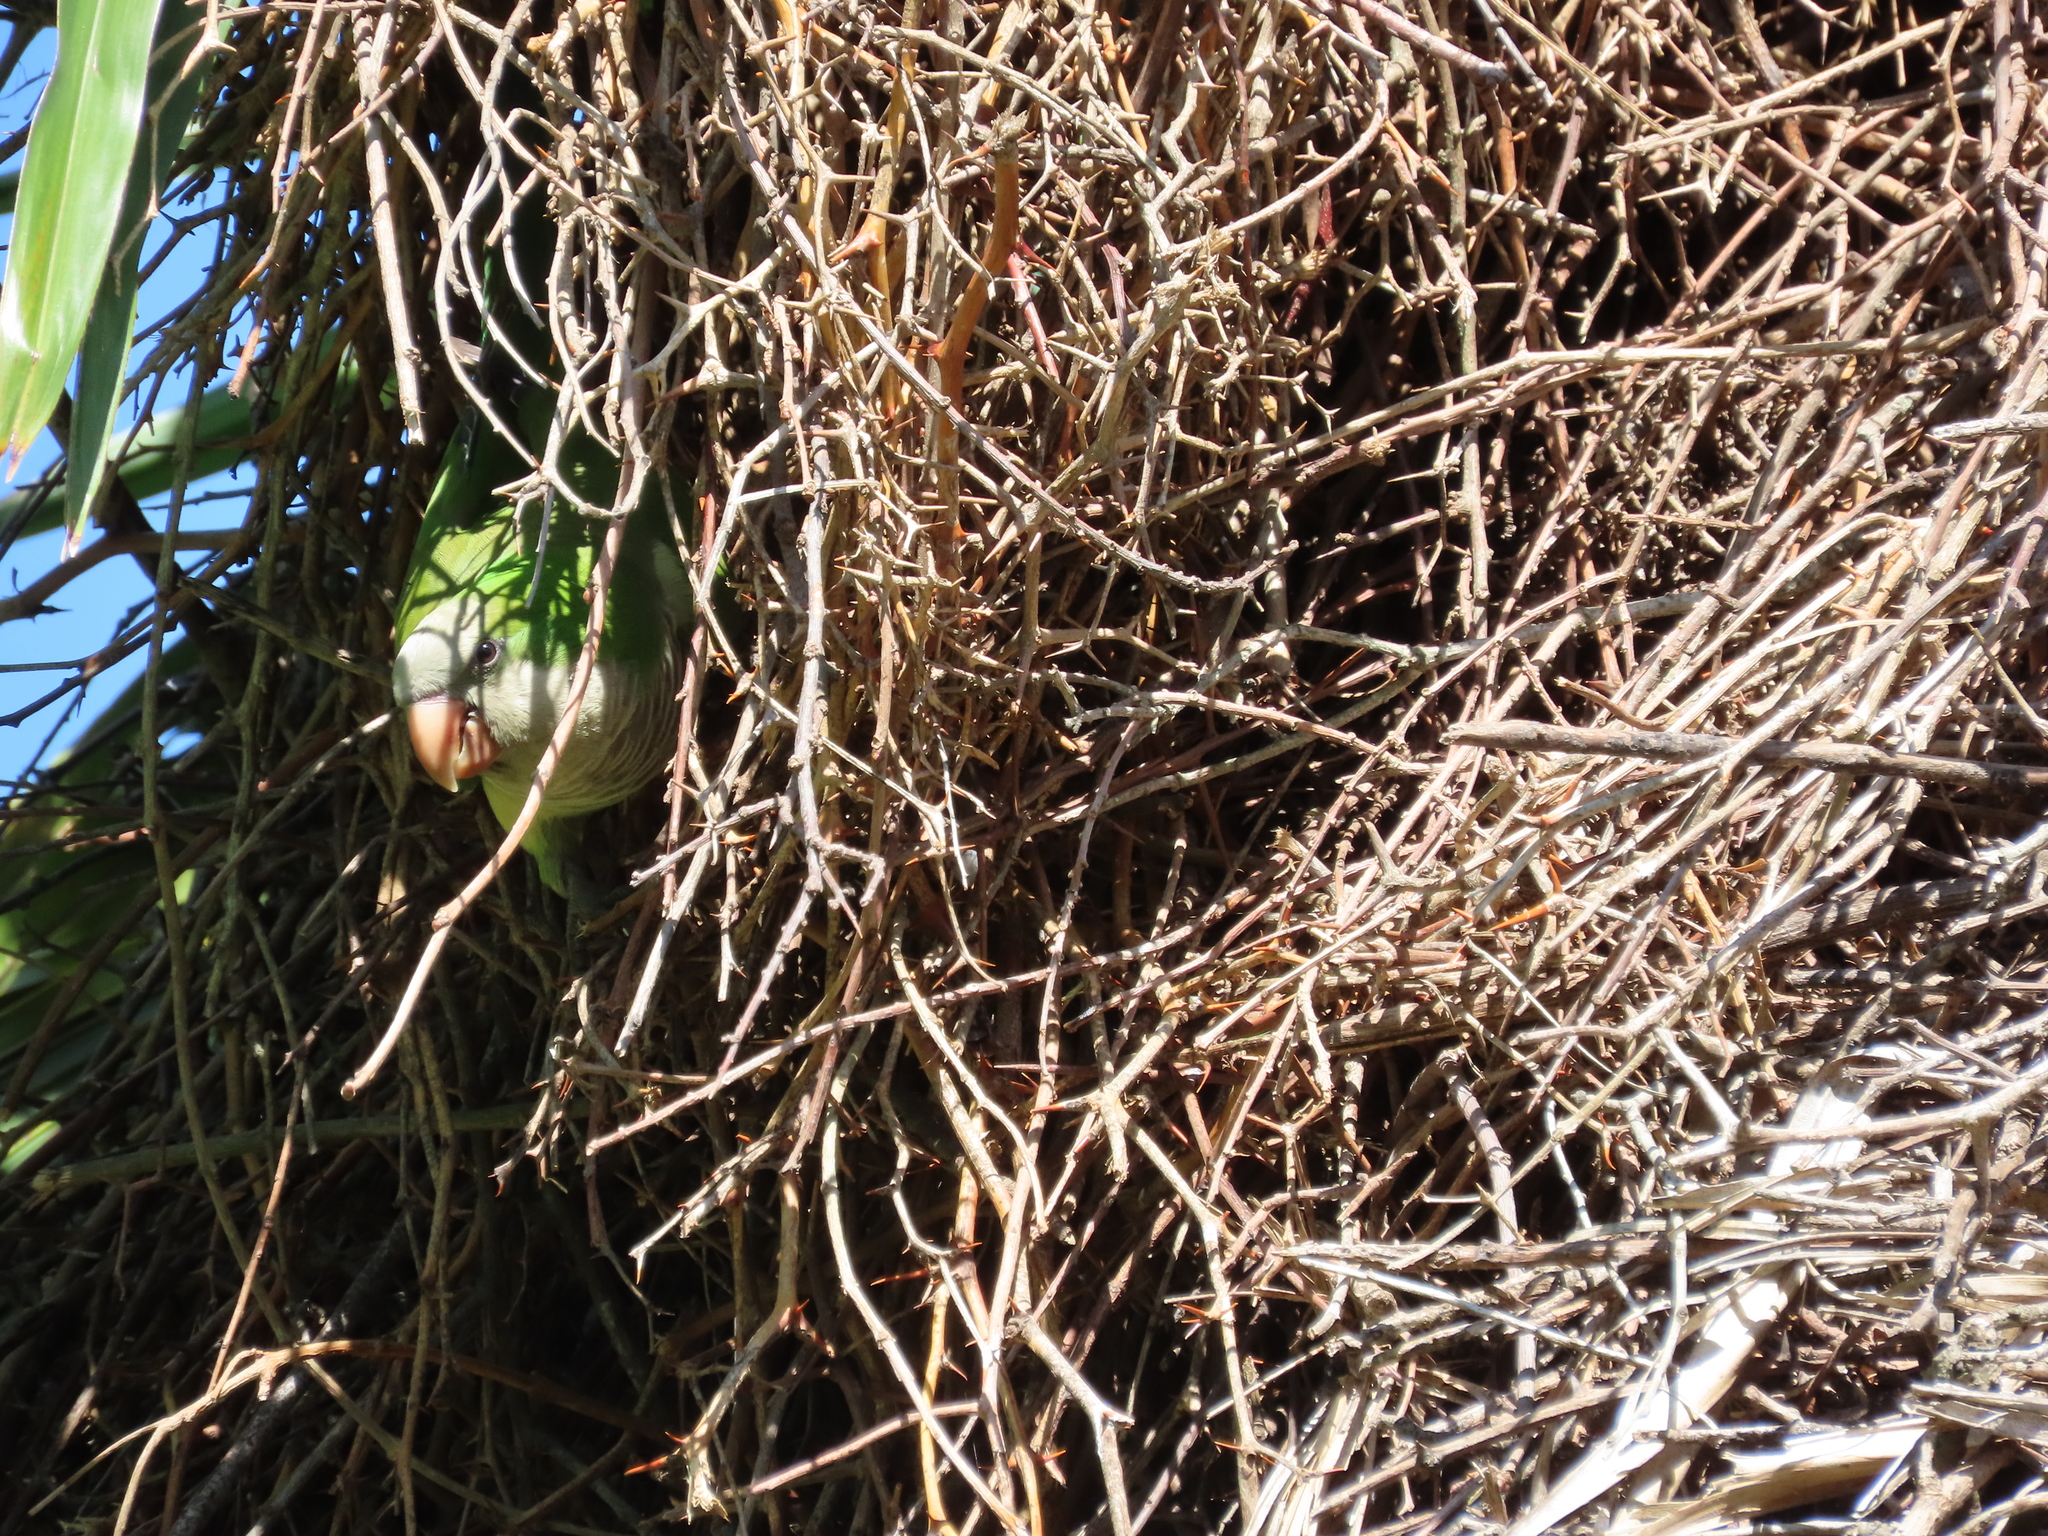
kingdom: Animalia
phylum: Chordata
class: Aves
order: Psittaciformes
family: Psittacidae
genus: Myiopsitta
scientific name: Myiopsitta monachus
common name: Monk parakeet
